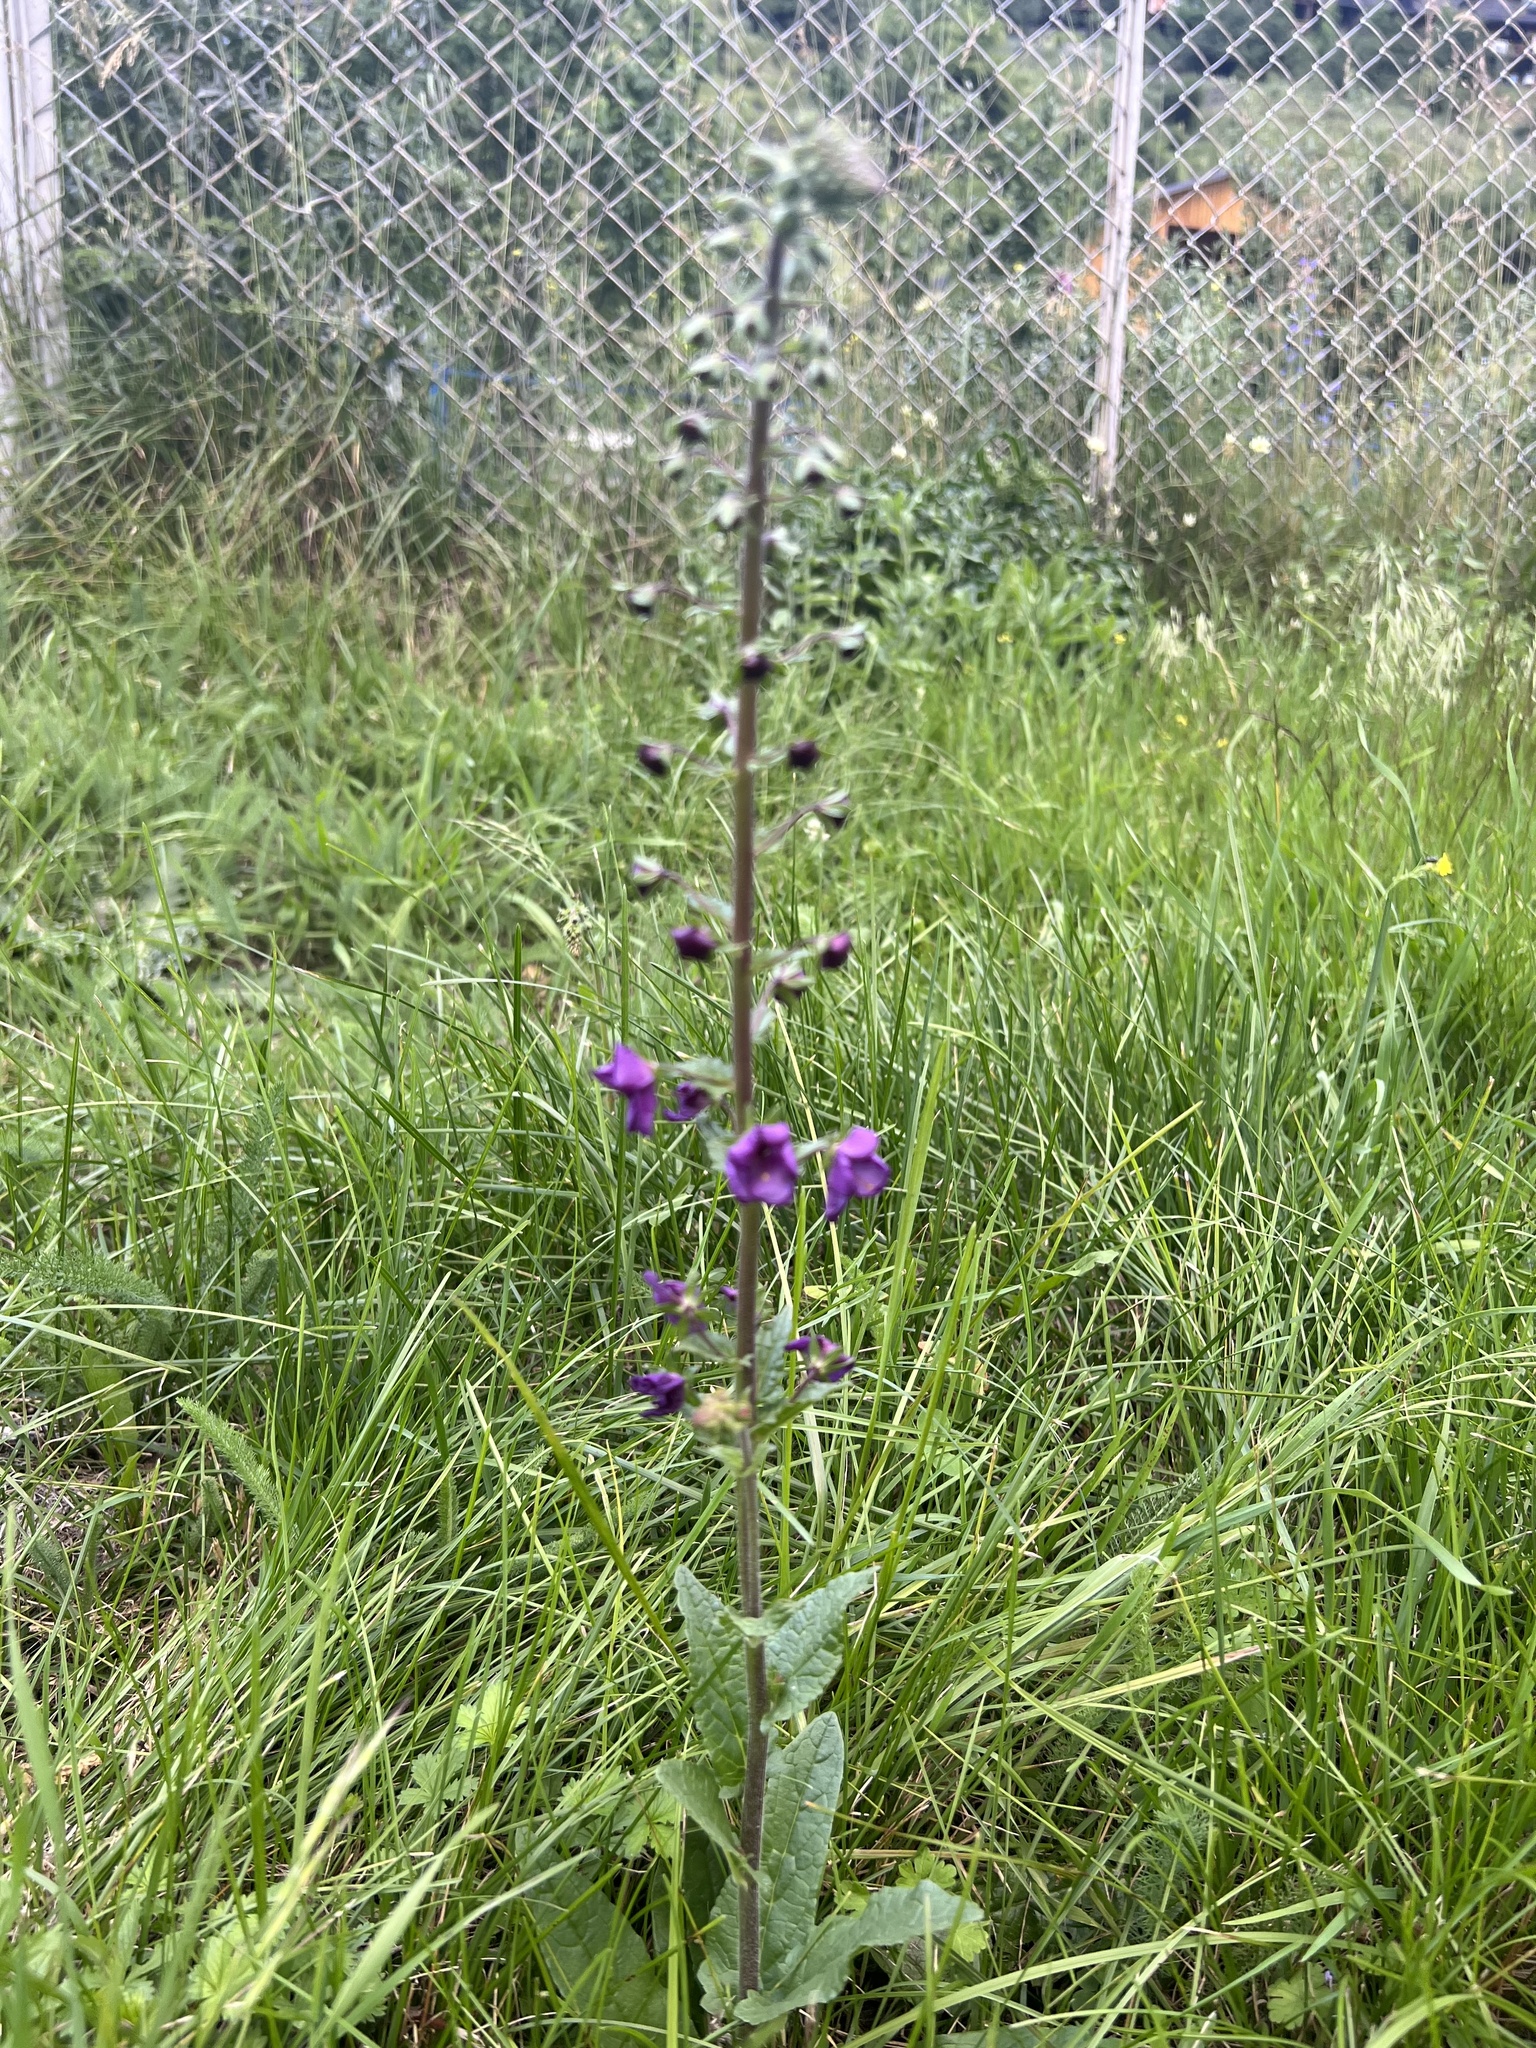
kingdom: Plantae
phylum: Tracheophyta
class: Magnoliopsida
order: Lamiales
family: Scrophulariaceae
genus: Verbascum
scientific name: Verbascum phoeniceum
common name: Purple mullein
